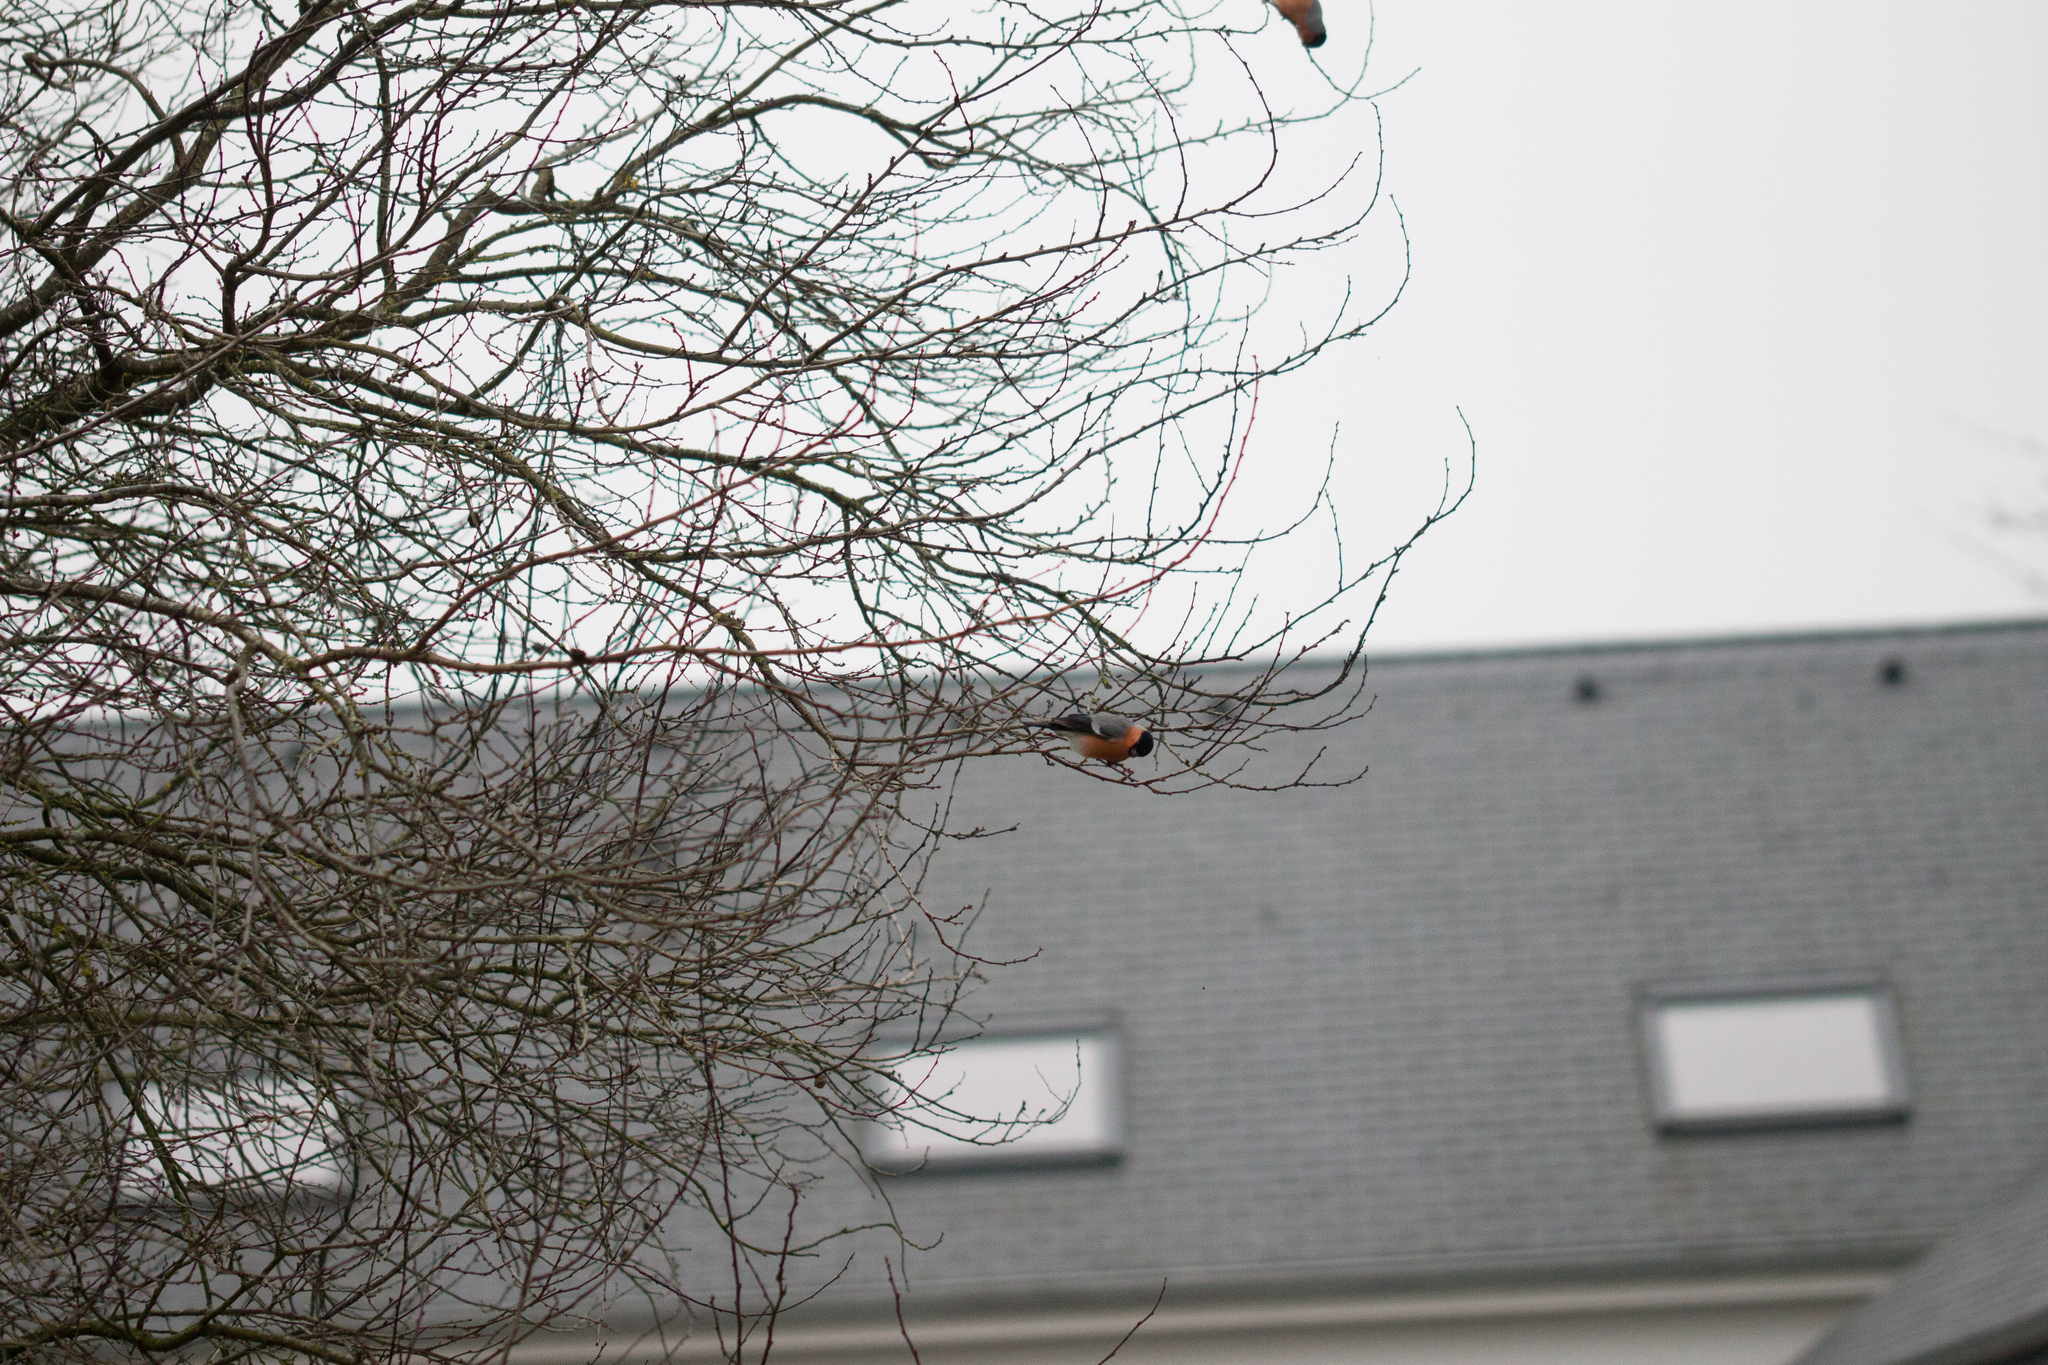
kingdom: Animalia
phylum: Chordata
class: Aves
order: Passeriformes
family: Fringillidae
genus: Pyrrhula
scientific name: Pyrrhula pyrrhula
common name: Eurasian bullfinch
